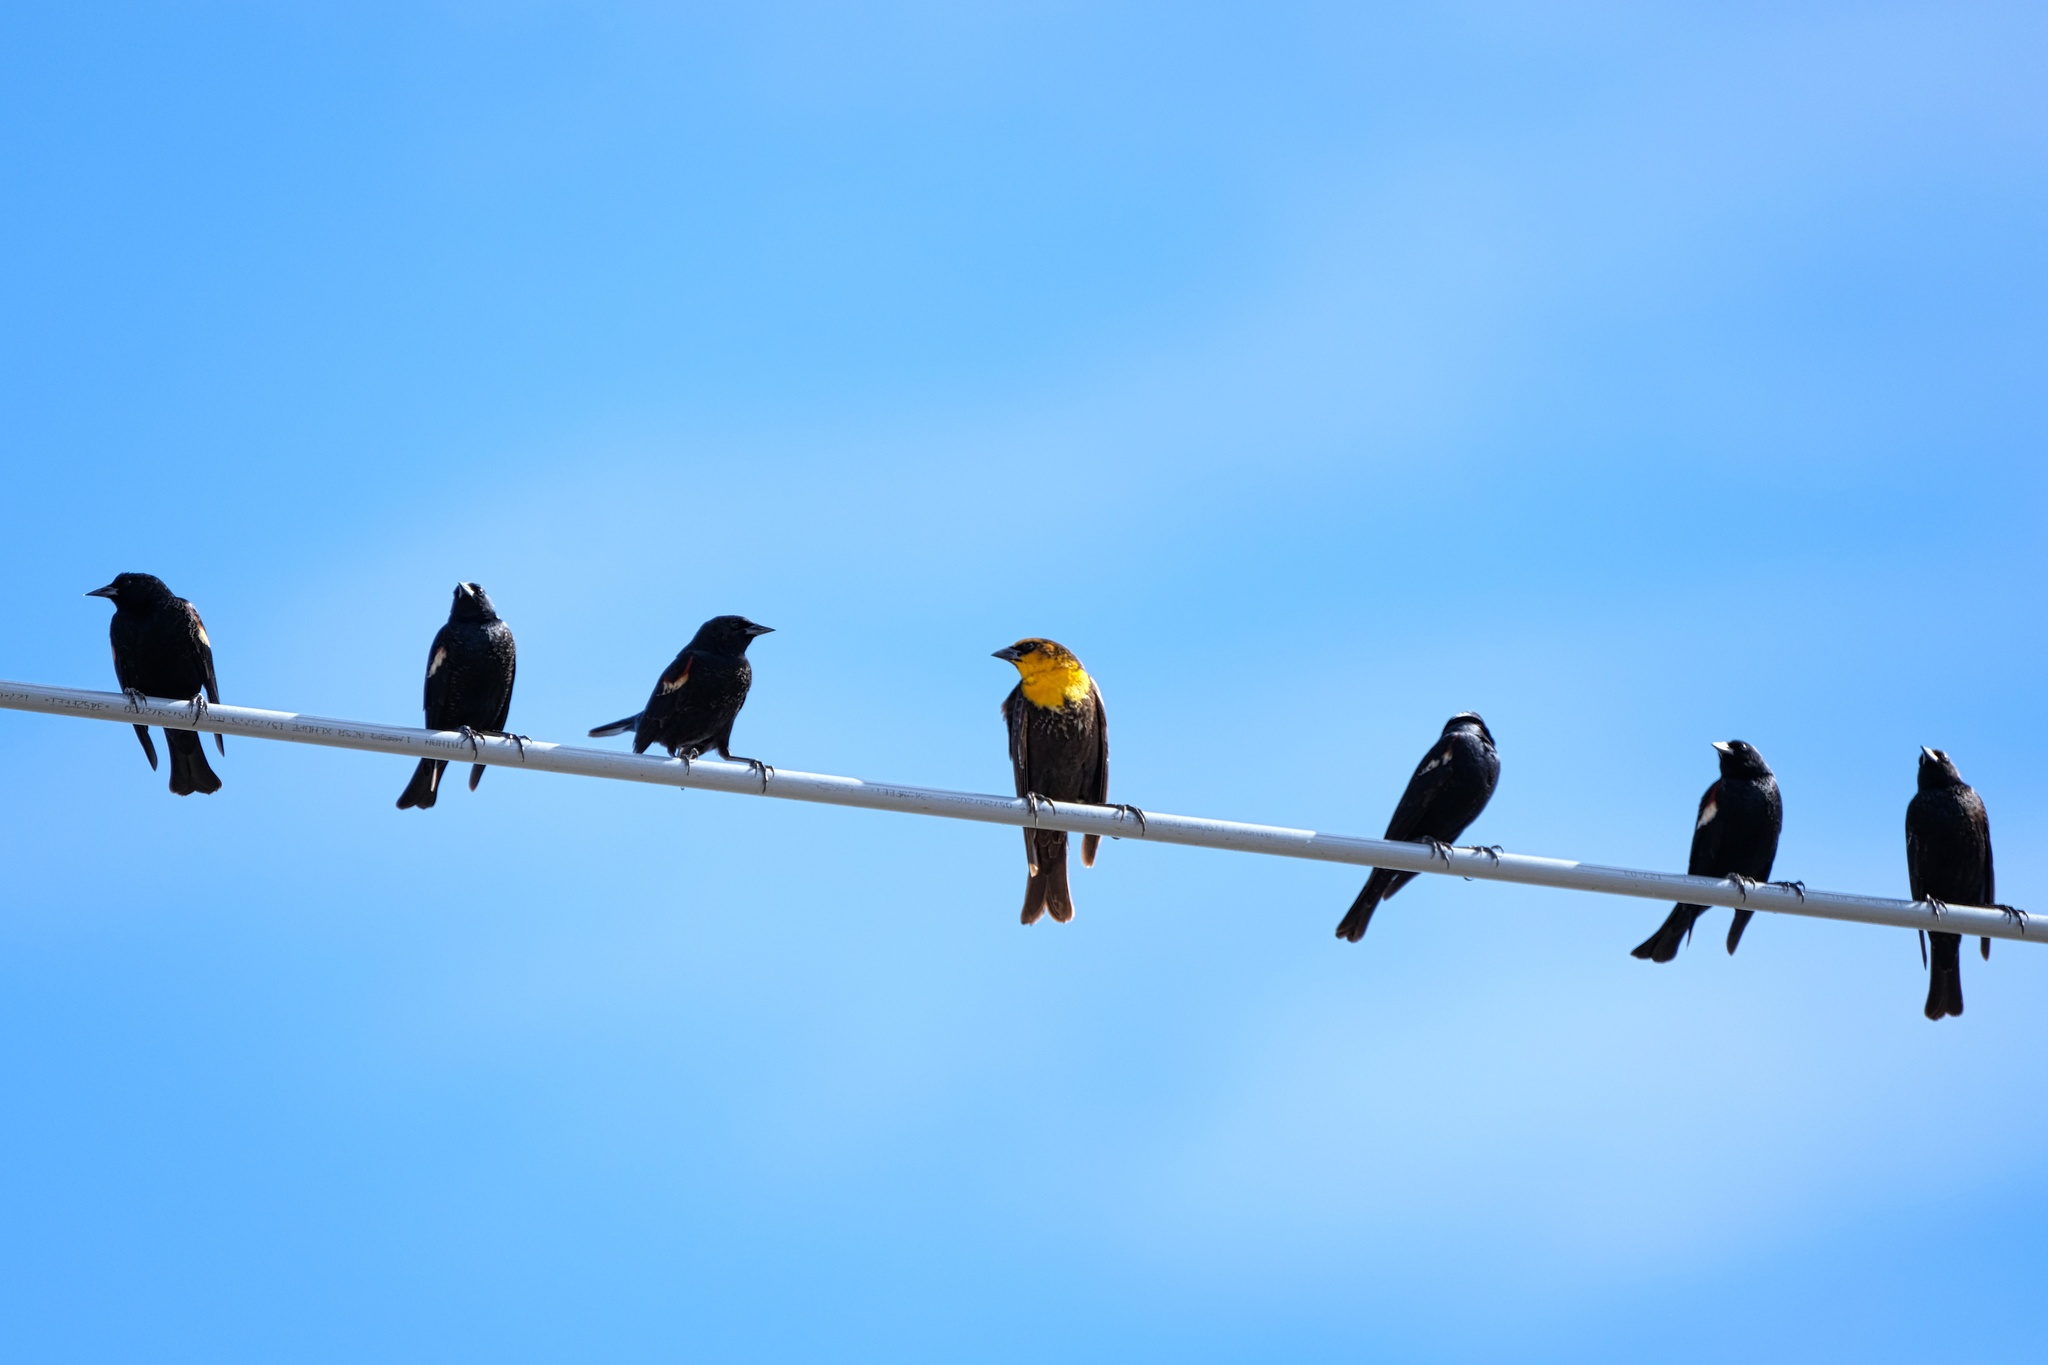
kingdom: Animalia
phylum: Chordata
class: Aves
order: Passeriformes
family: Icteridae
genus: Xanthocephalus
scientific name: Xanthocephalus xanthocephalus
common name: Yellow-headed blackbird
